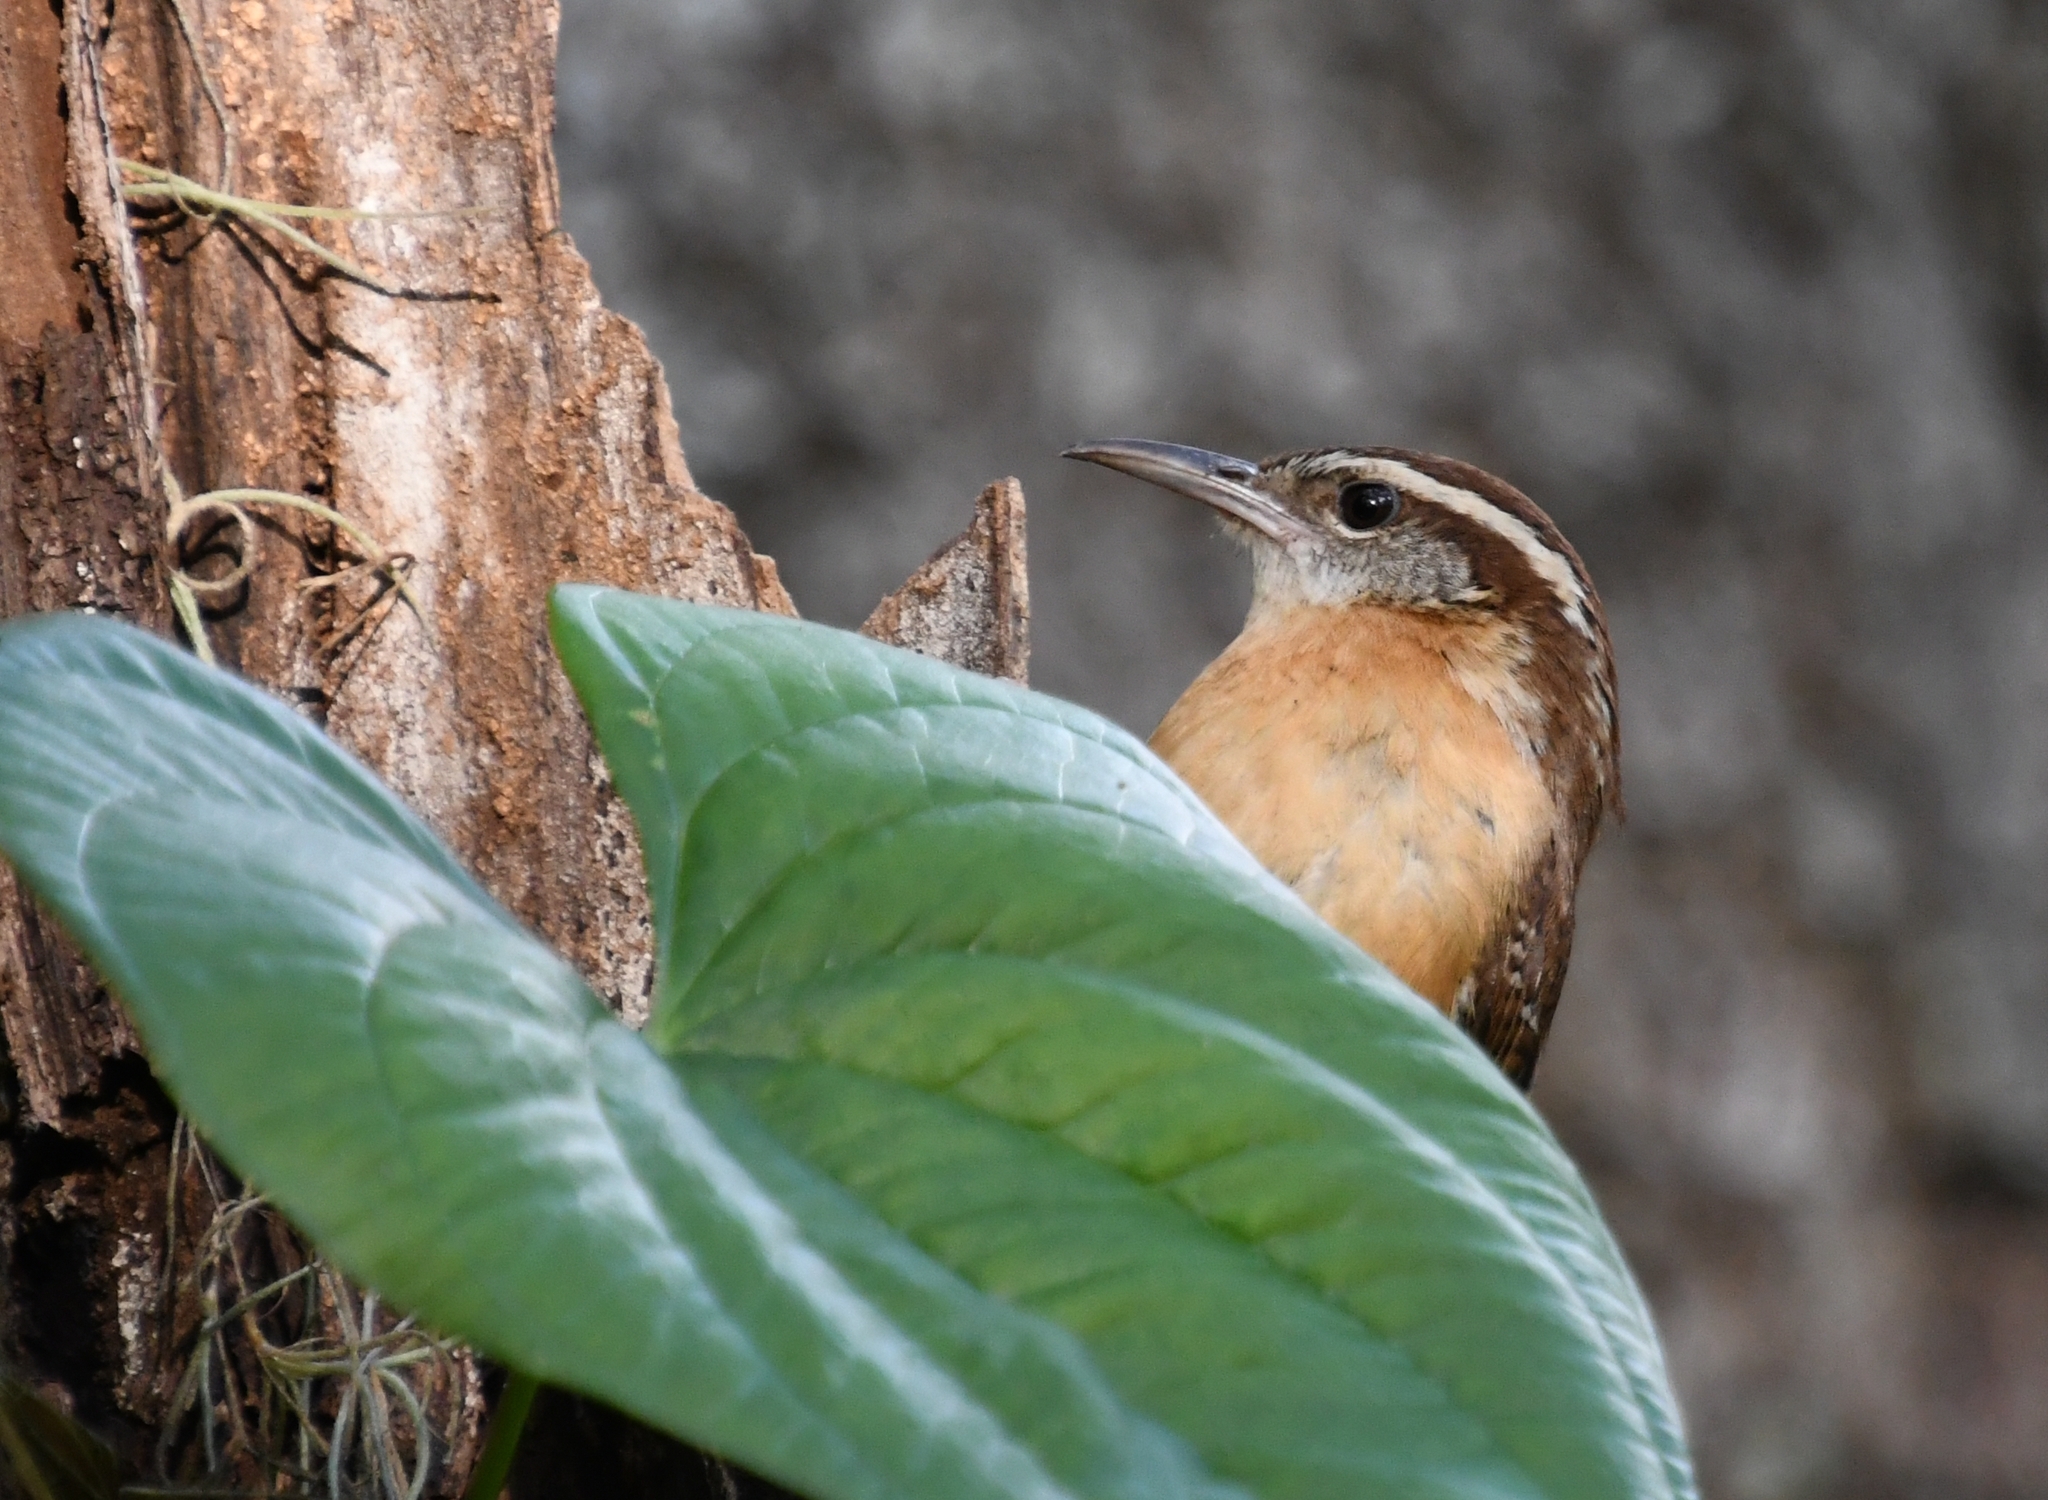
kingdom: Animalia
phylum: Chordata
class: Aves
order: Passeriformes
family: Troglodytidae
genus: Thryothorus
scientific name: Thryothorus ludovicianus
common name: Carolina wren
